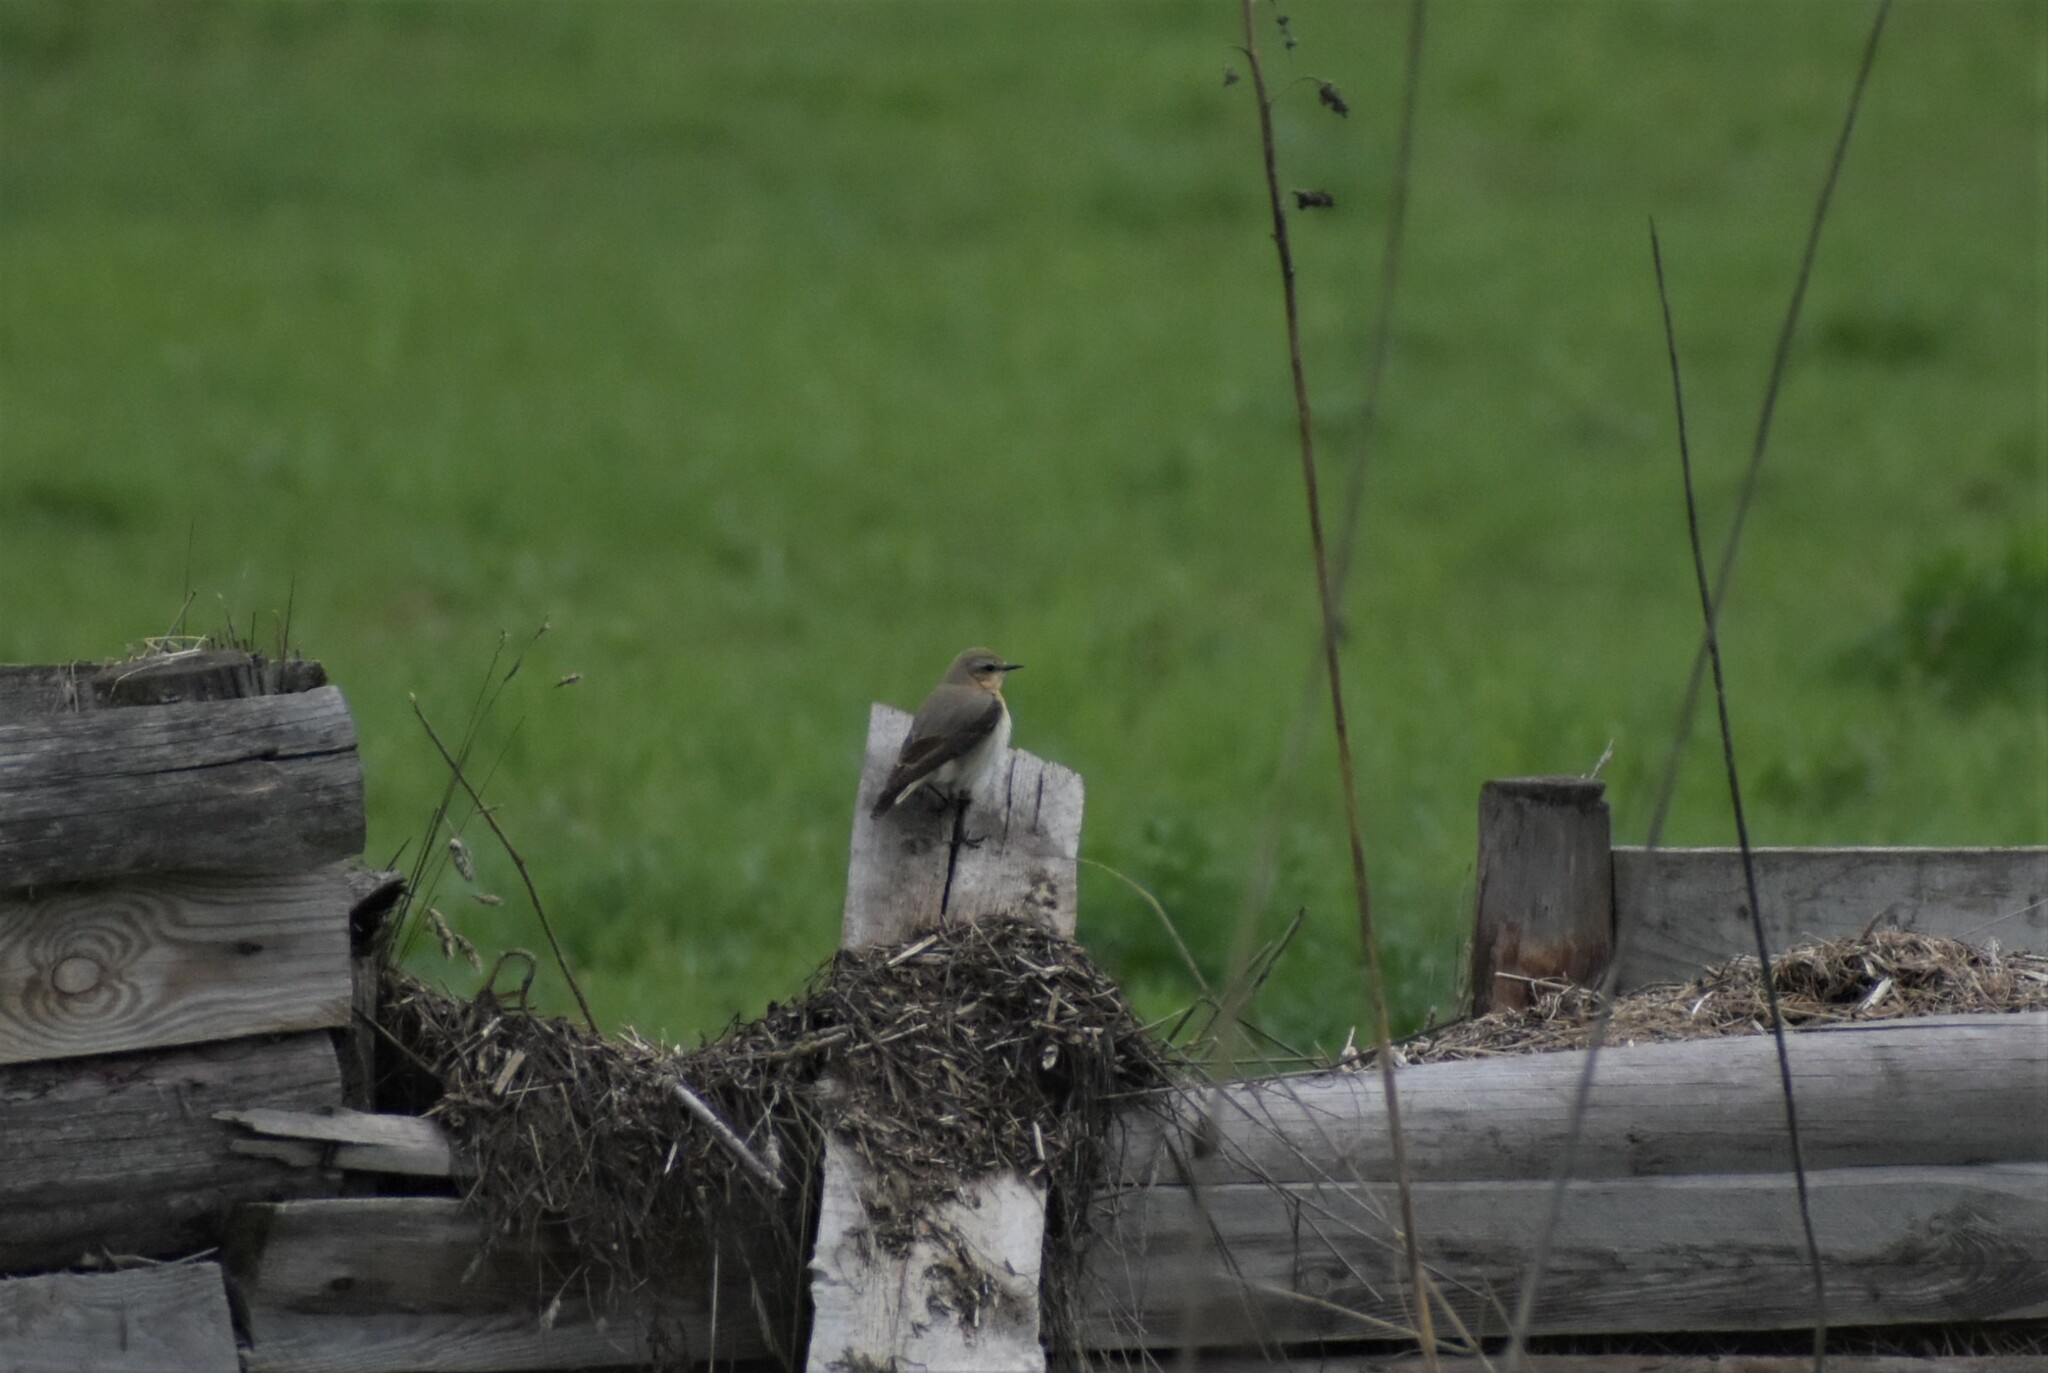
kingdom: Animalia
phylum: Chordata
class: Aves
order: Passeriformes
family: Muscicapidae
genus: Oenanthe
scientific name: Oenanthe oenanthe
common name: Northern wheatear
